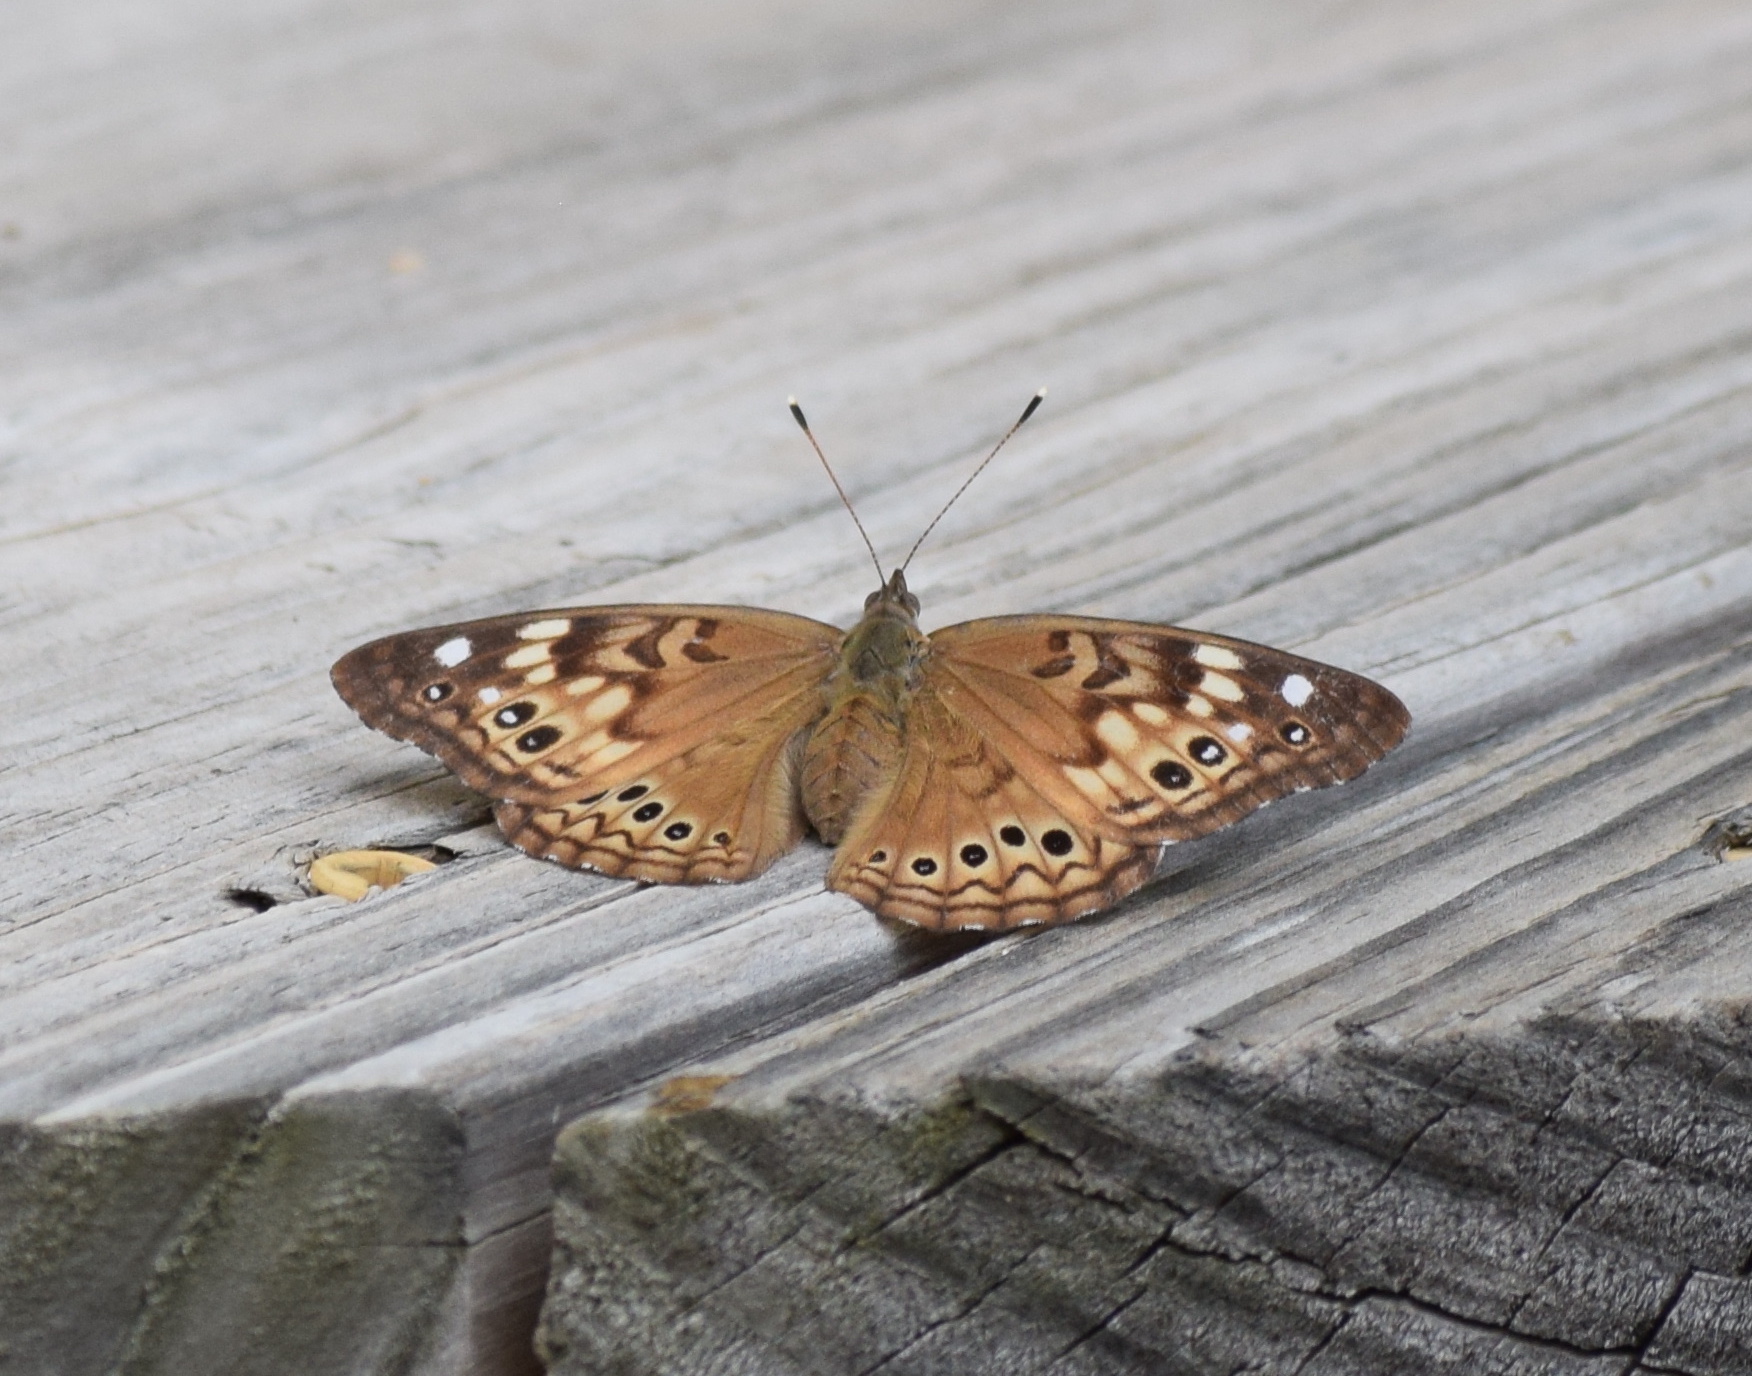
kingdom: Animalia
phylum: Arthropoda
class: Insecta
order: Lepidoptera
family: Nymphalidae
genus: Asterocampa
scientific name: Asterocampa celtis
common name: Hackberry emperor
